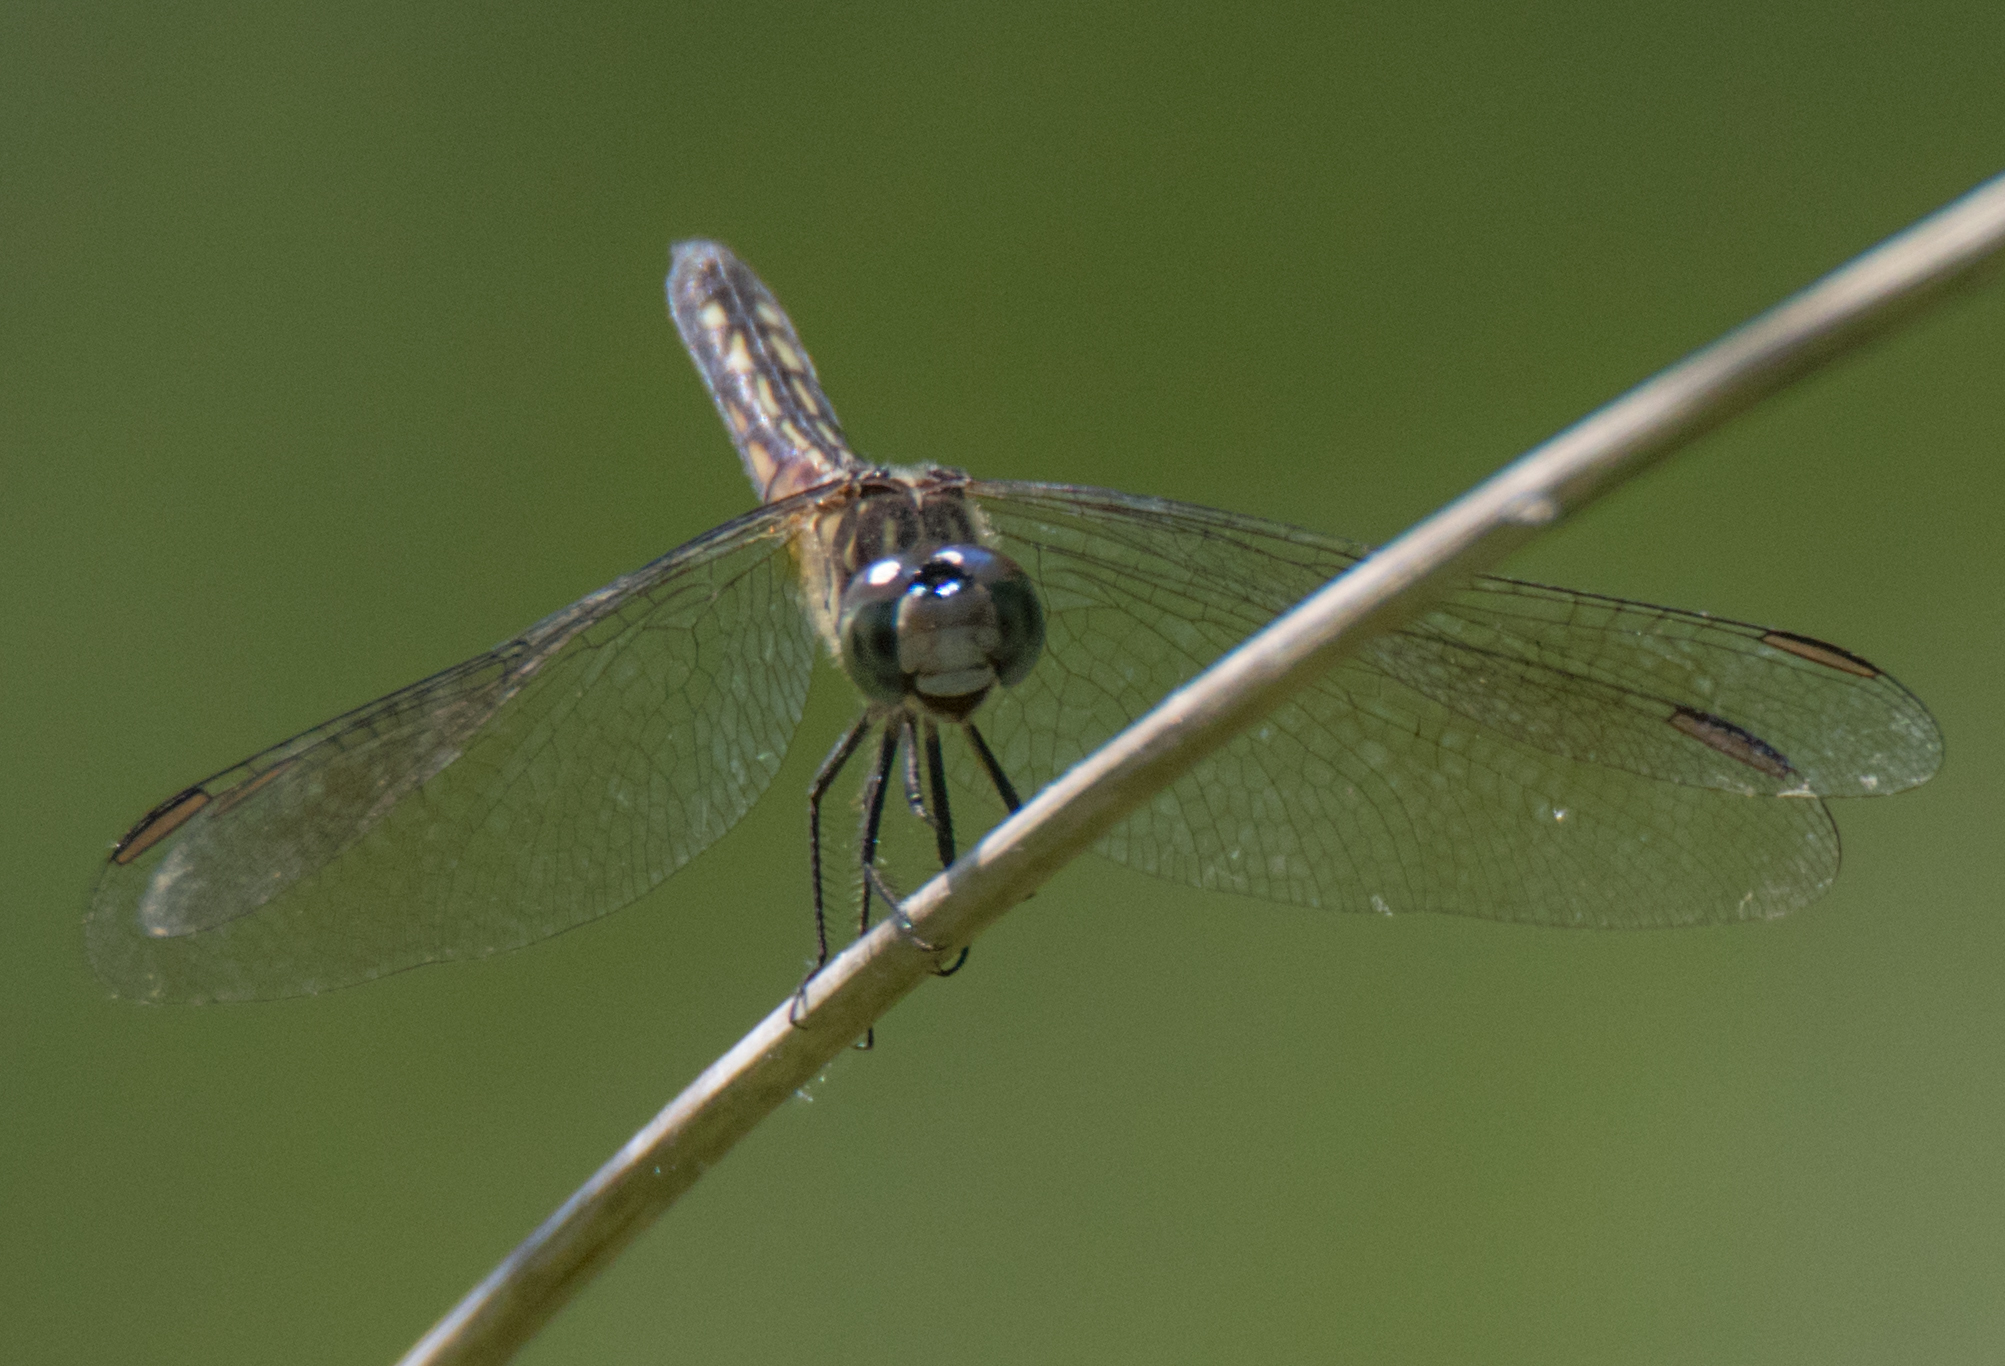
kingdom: Animalia
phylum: Arthropoda
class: Insecta
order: Odonata
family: Libellulidae
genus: Pachydiplax
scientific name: Pachydiplax longipennis
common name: Blue dasher
